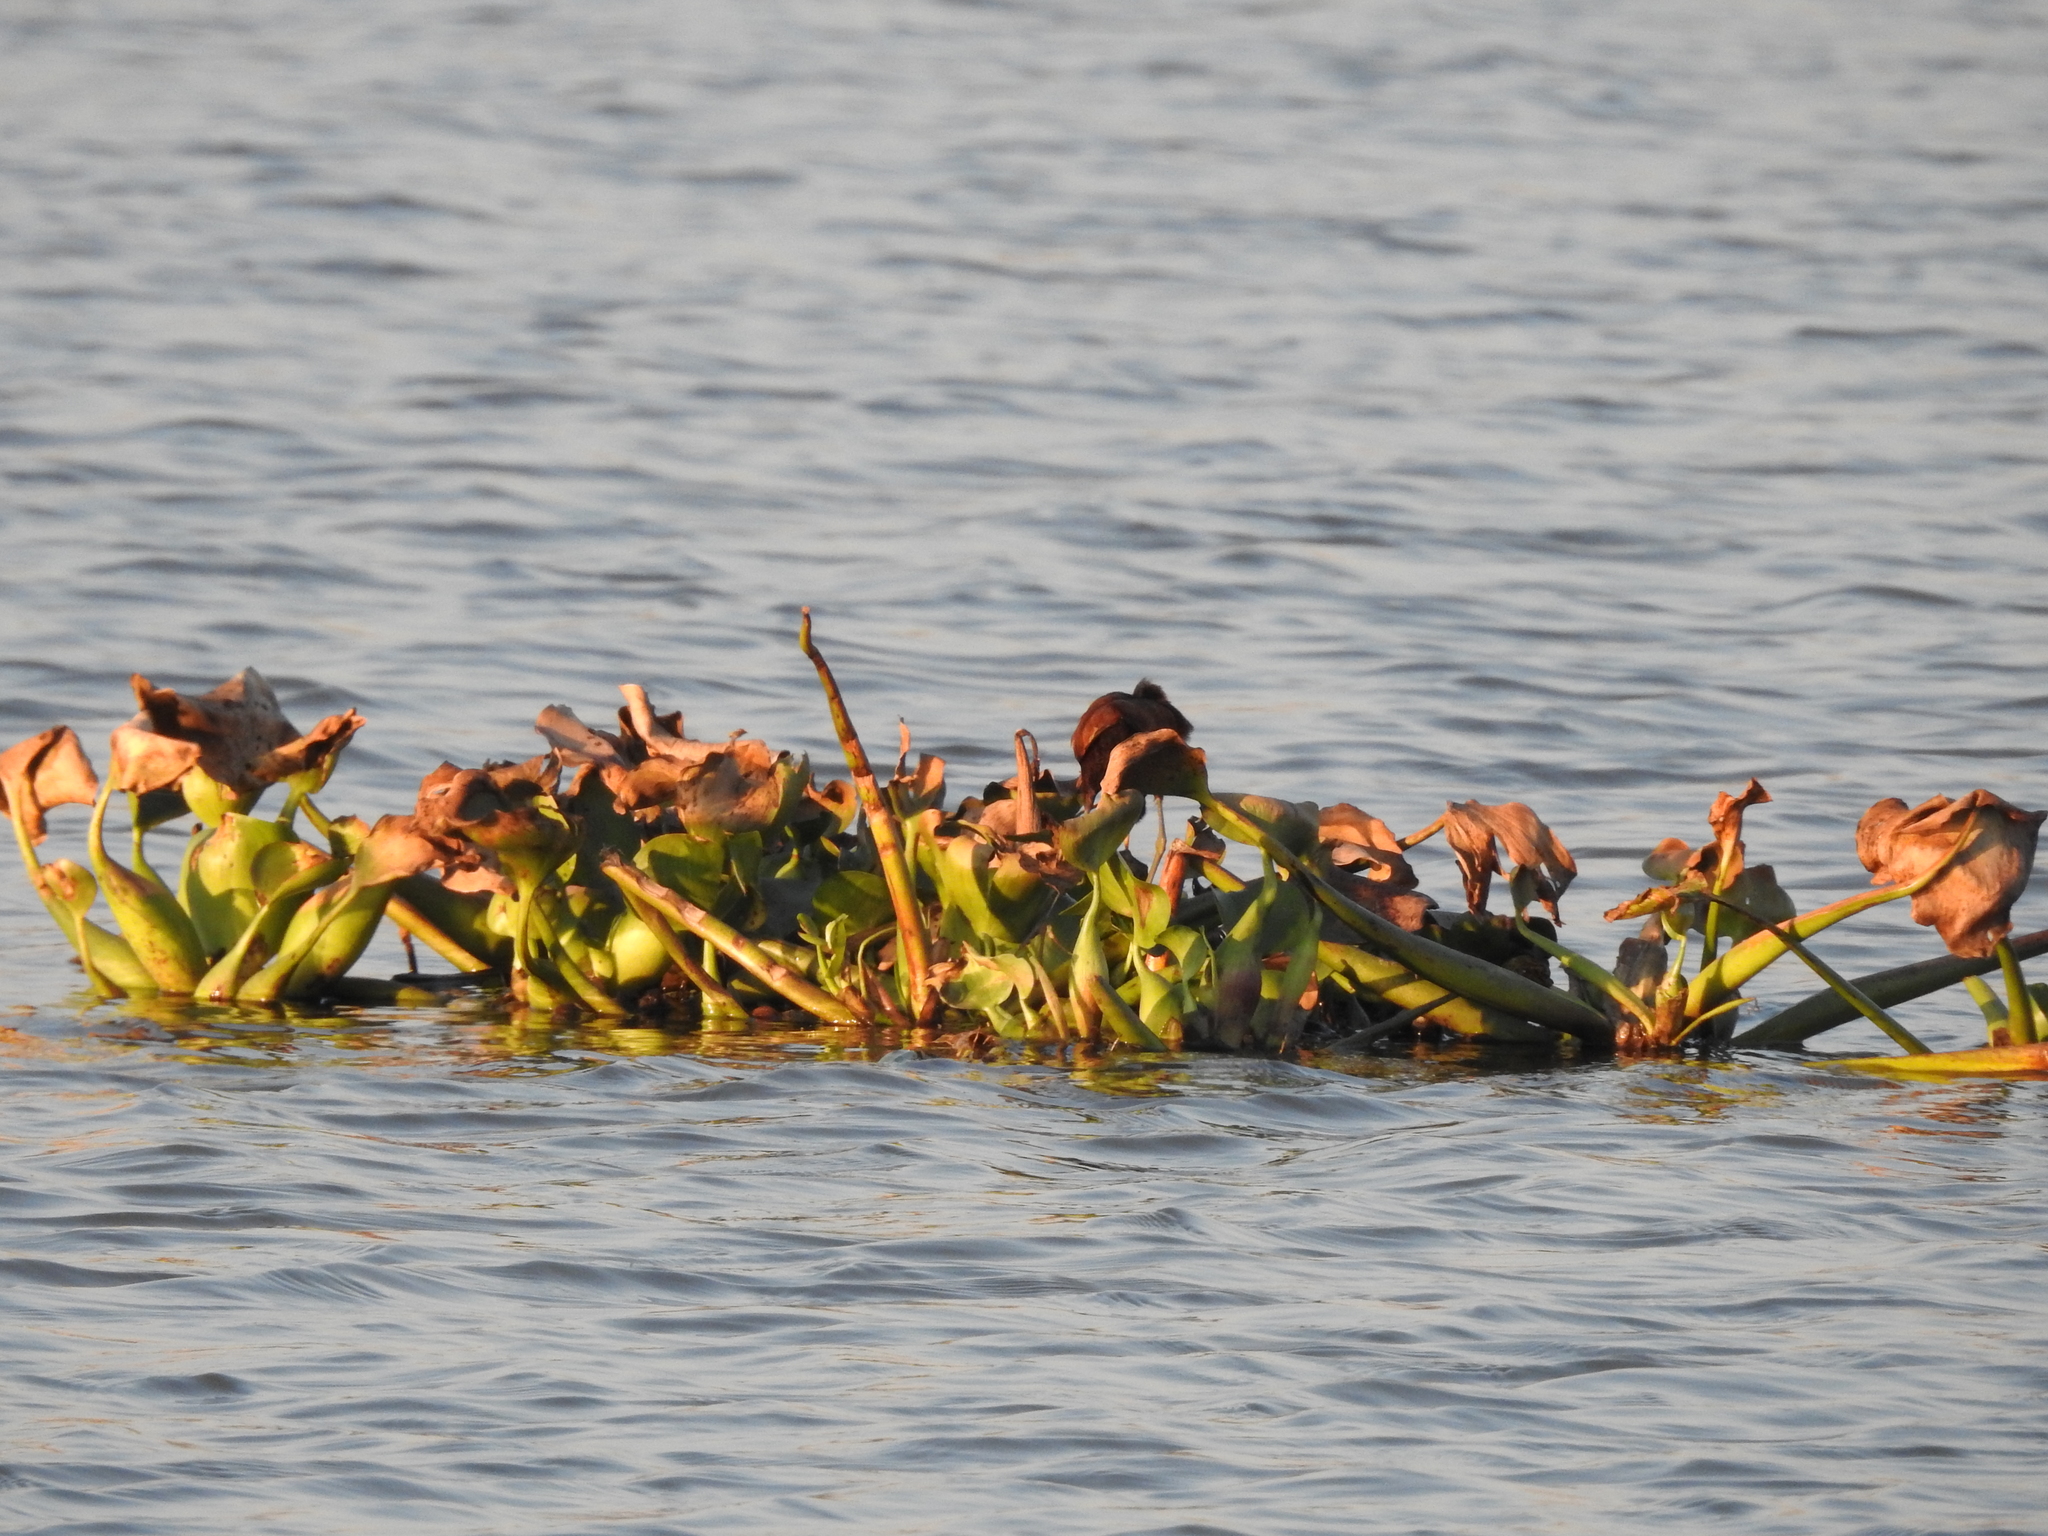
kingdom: Plantae
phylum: Tracheophyta
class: Liliopsida
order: Commelinales
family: Pontederiaceae
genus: Pontederia
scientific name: Pontederia crassipes
